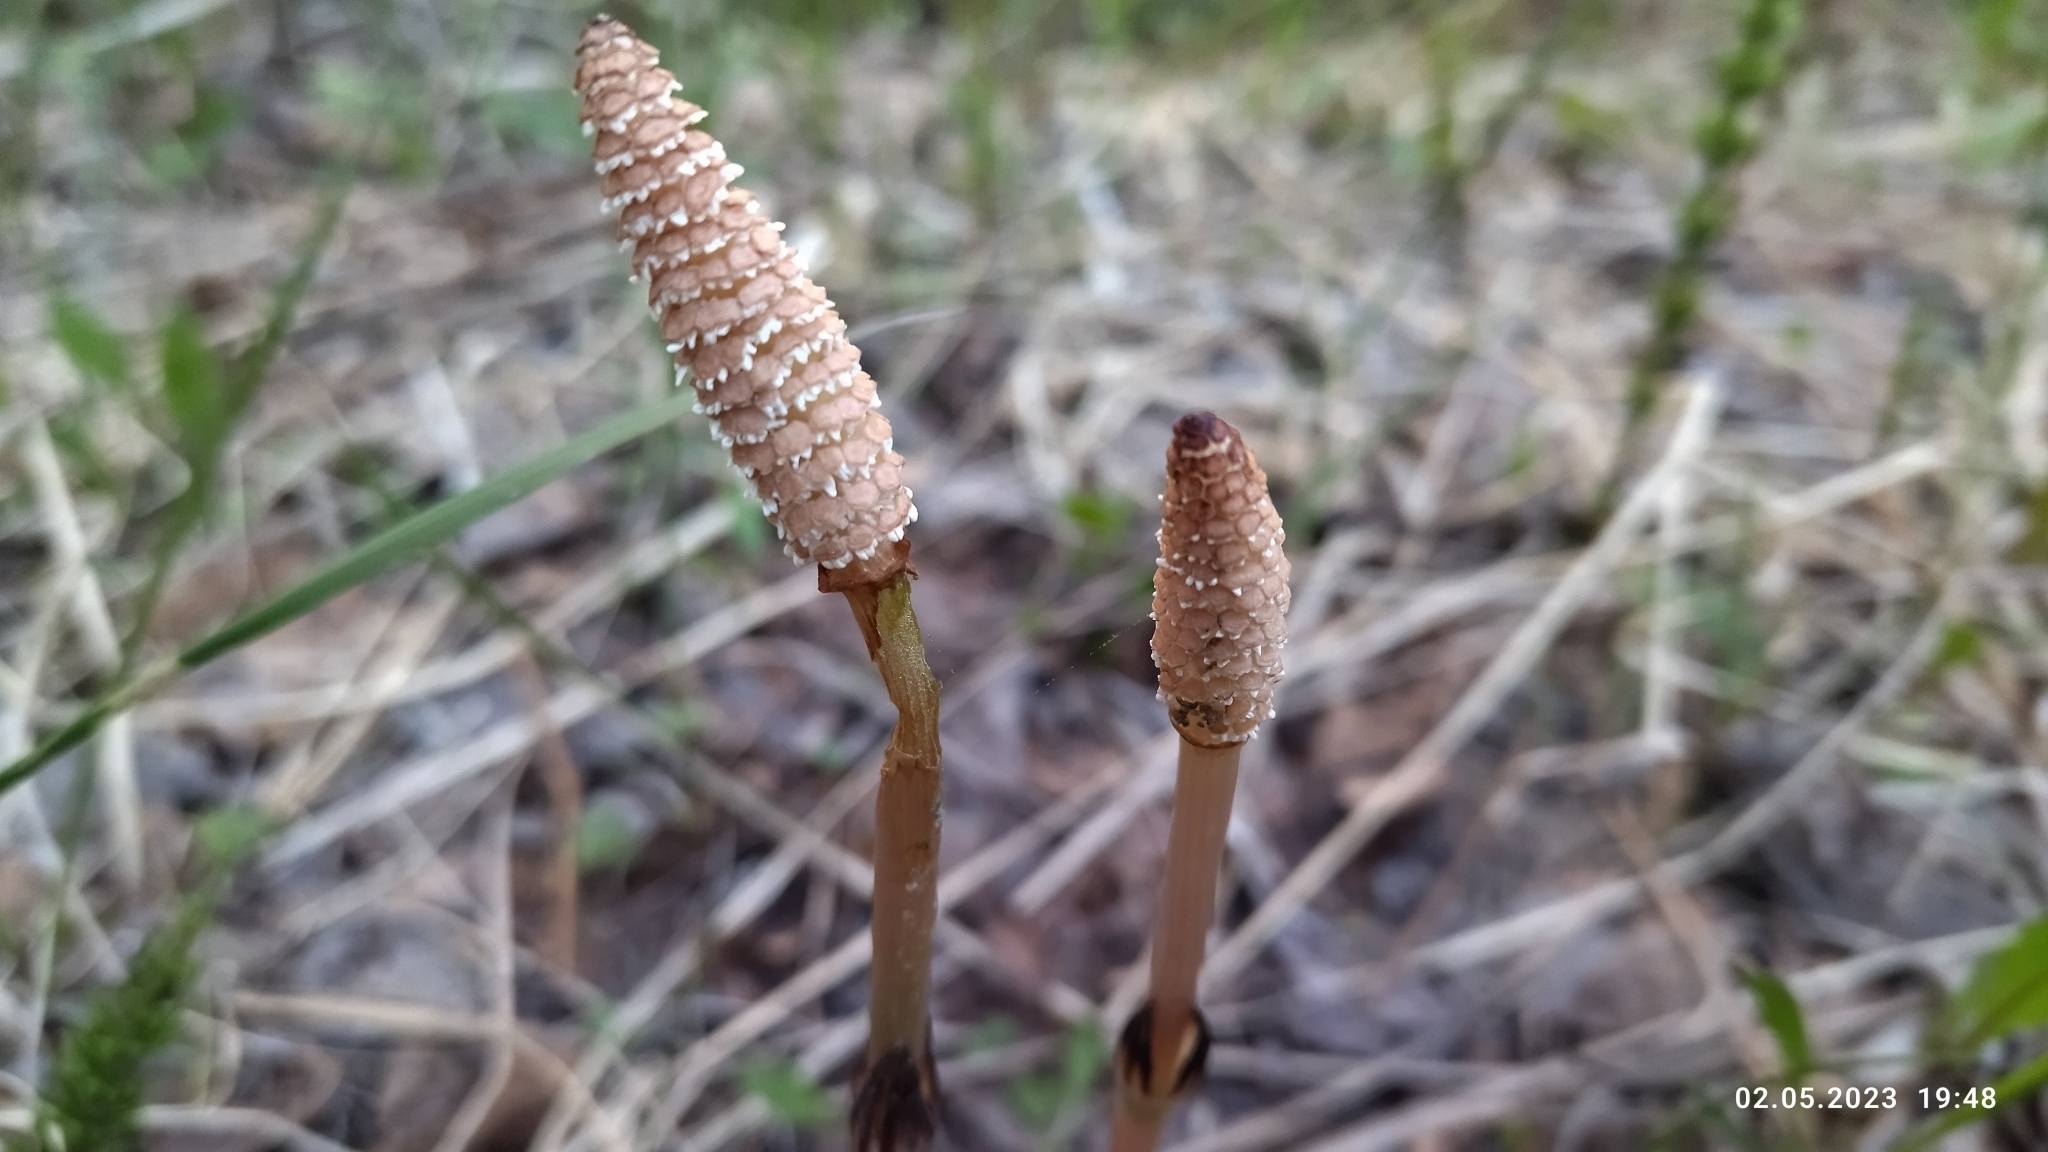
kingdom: Plantae
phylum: Tracheophyta
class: Polypodiopsida
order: Equisetales
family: Equisetaceae
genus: Equisetum
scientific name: Equisetum arvense
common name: Field horsetail
